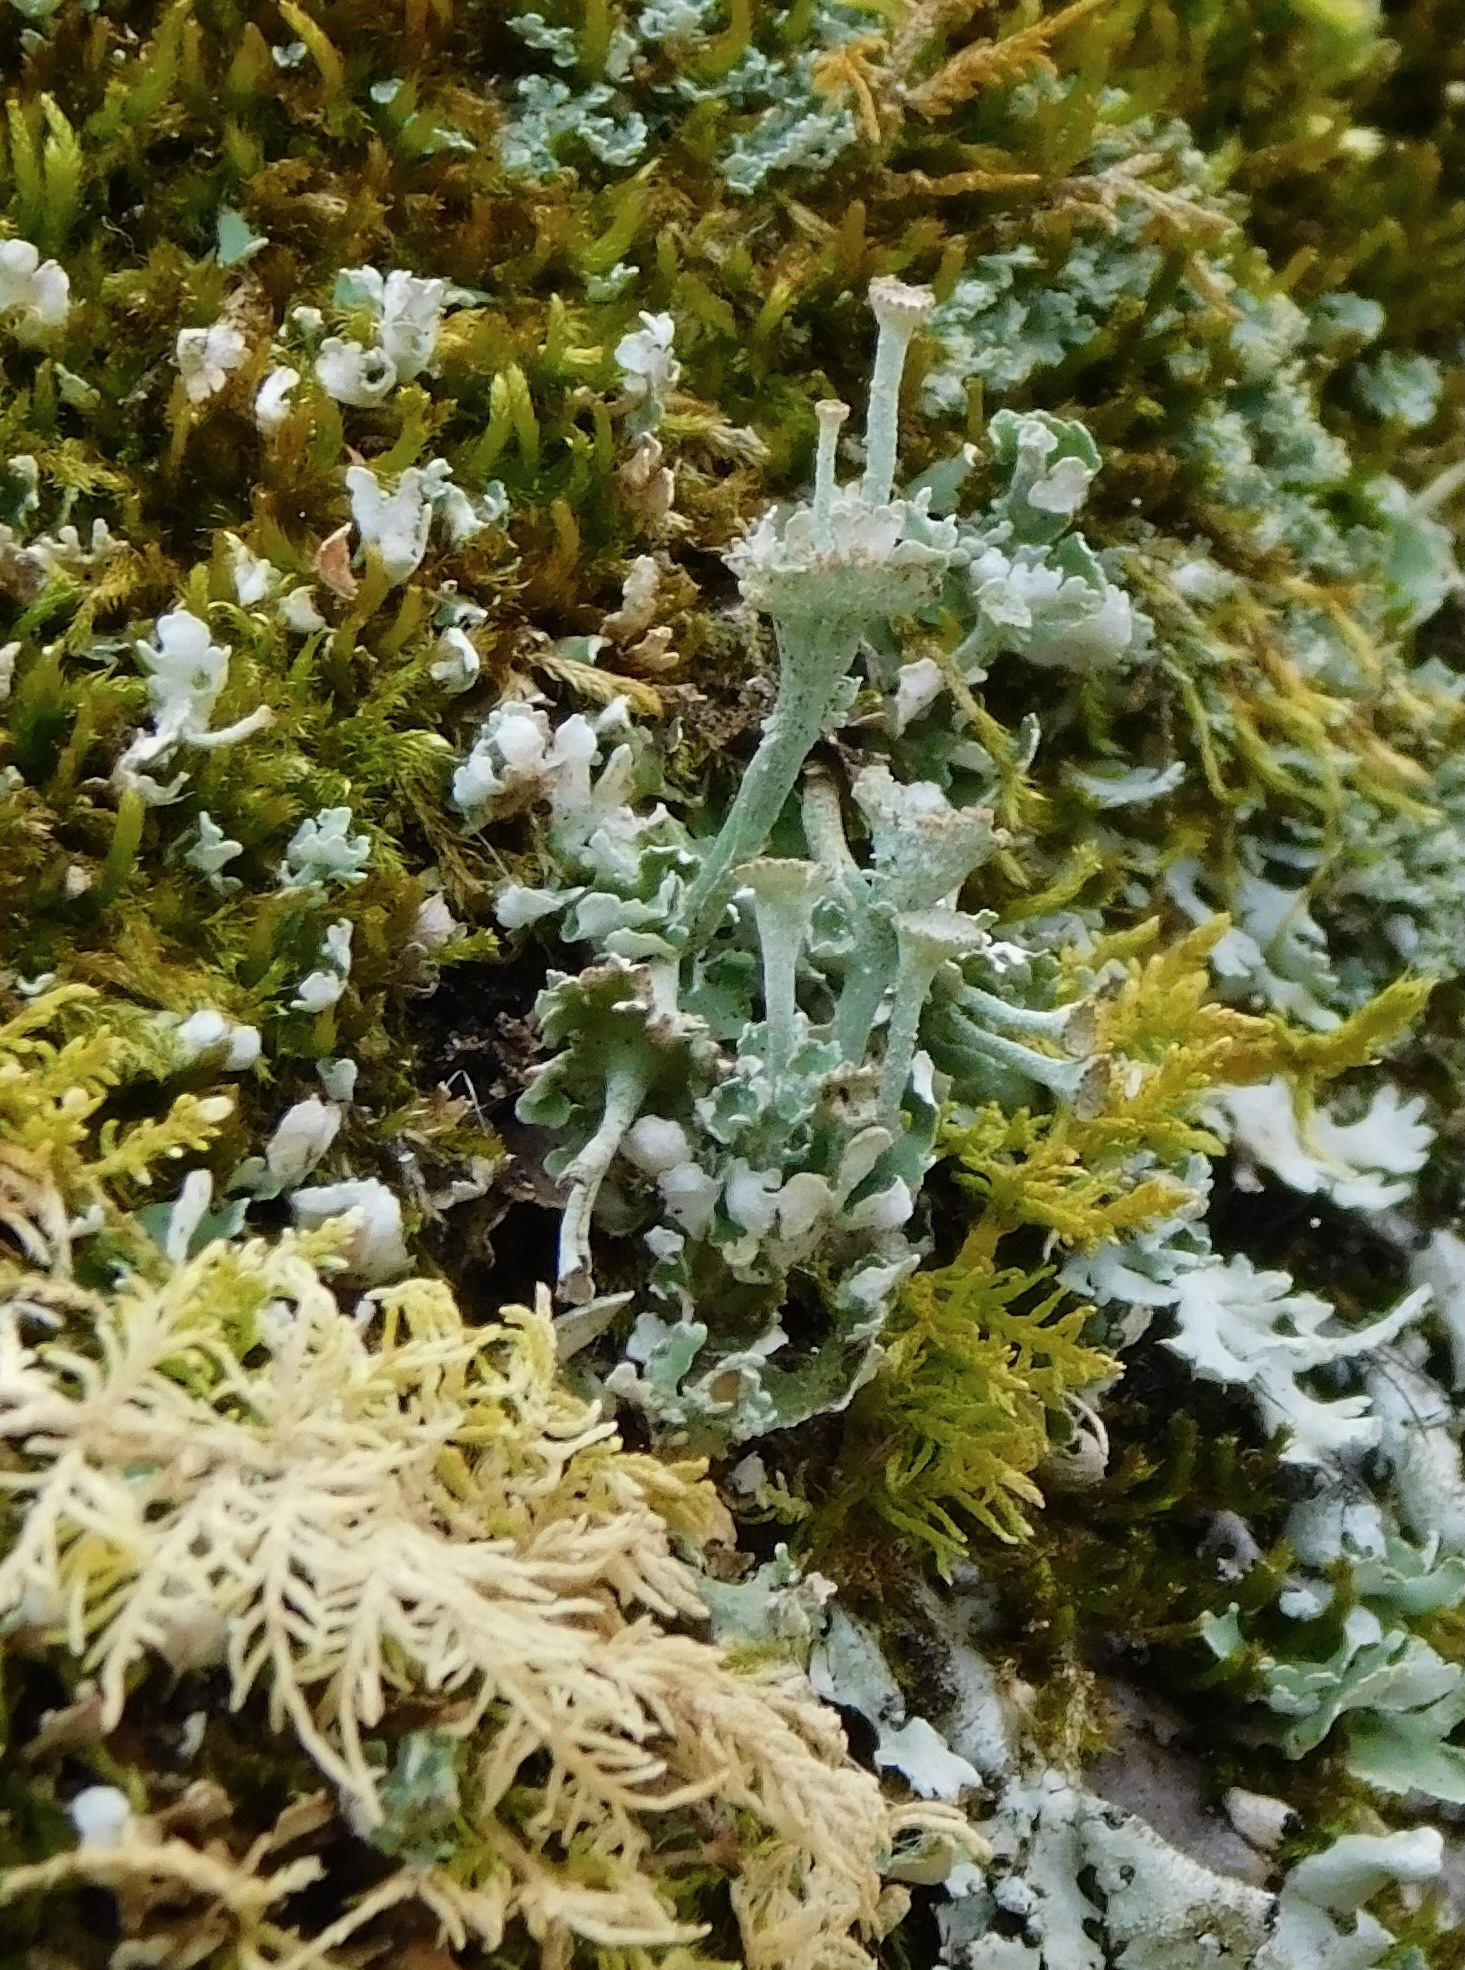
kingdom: Fungi
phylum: Ascomycota
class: Lecanoromycetes
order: Lecanorales
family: Cladoniaceae
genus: Cladonia
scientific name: Cladonia cervicornis
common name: Browned pixie-cup lichen
